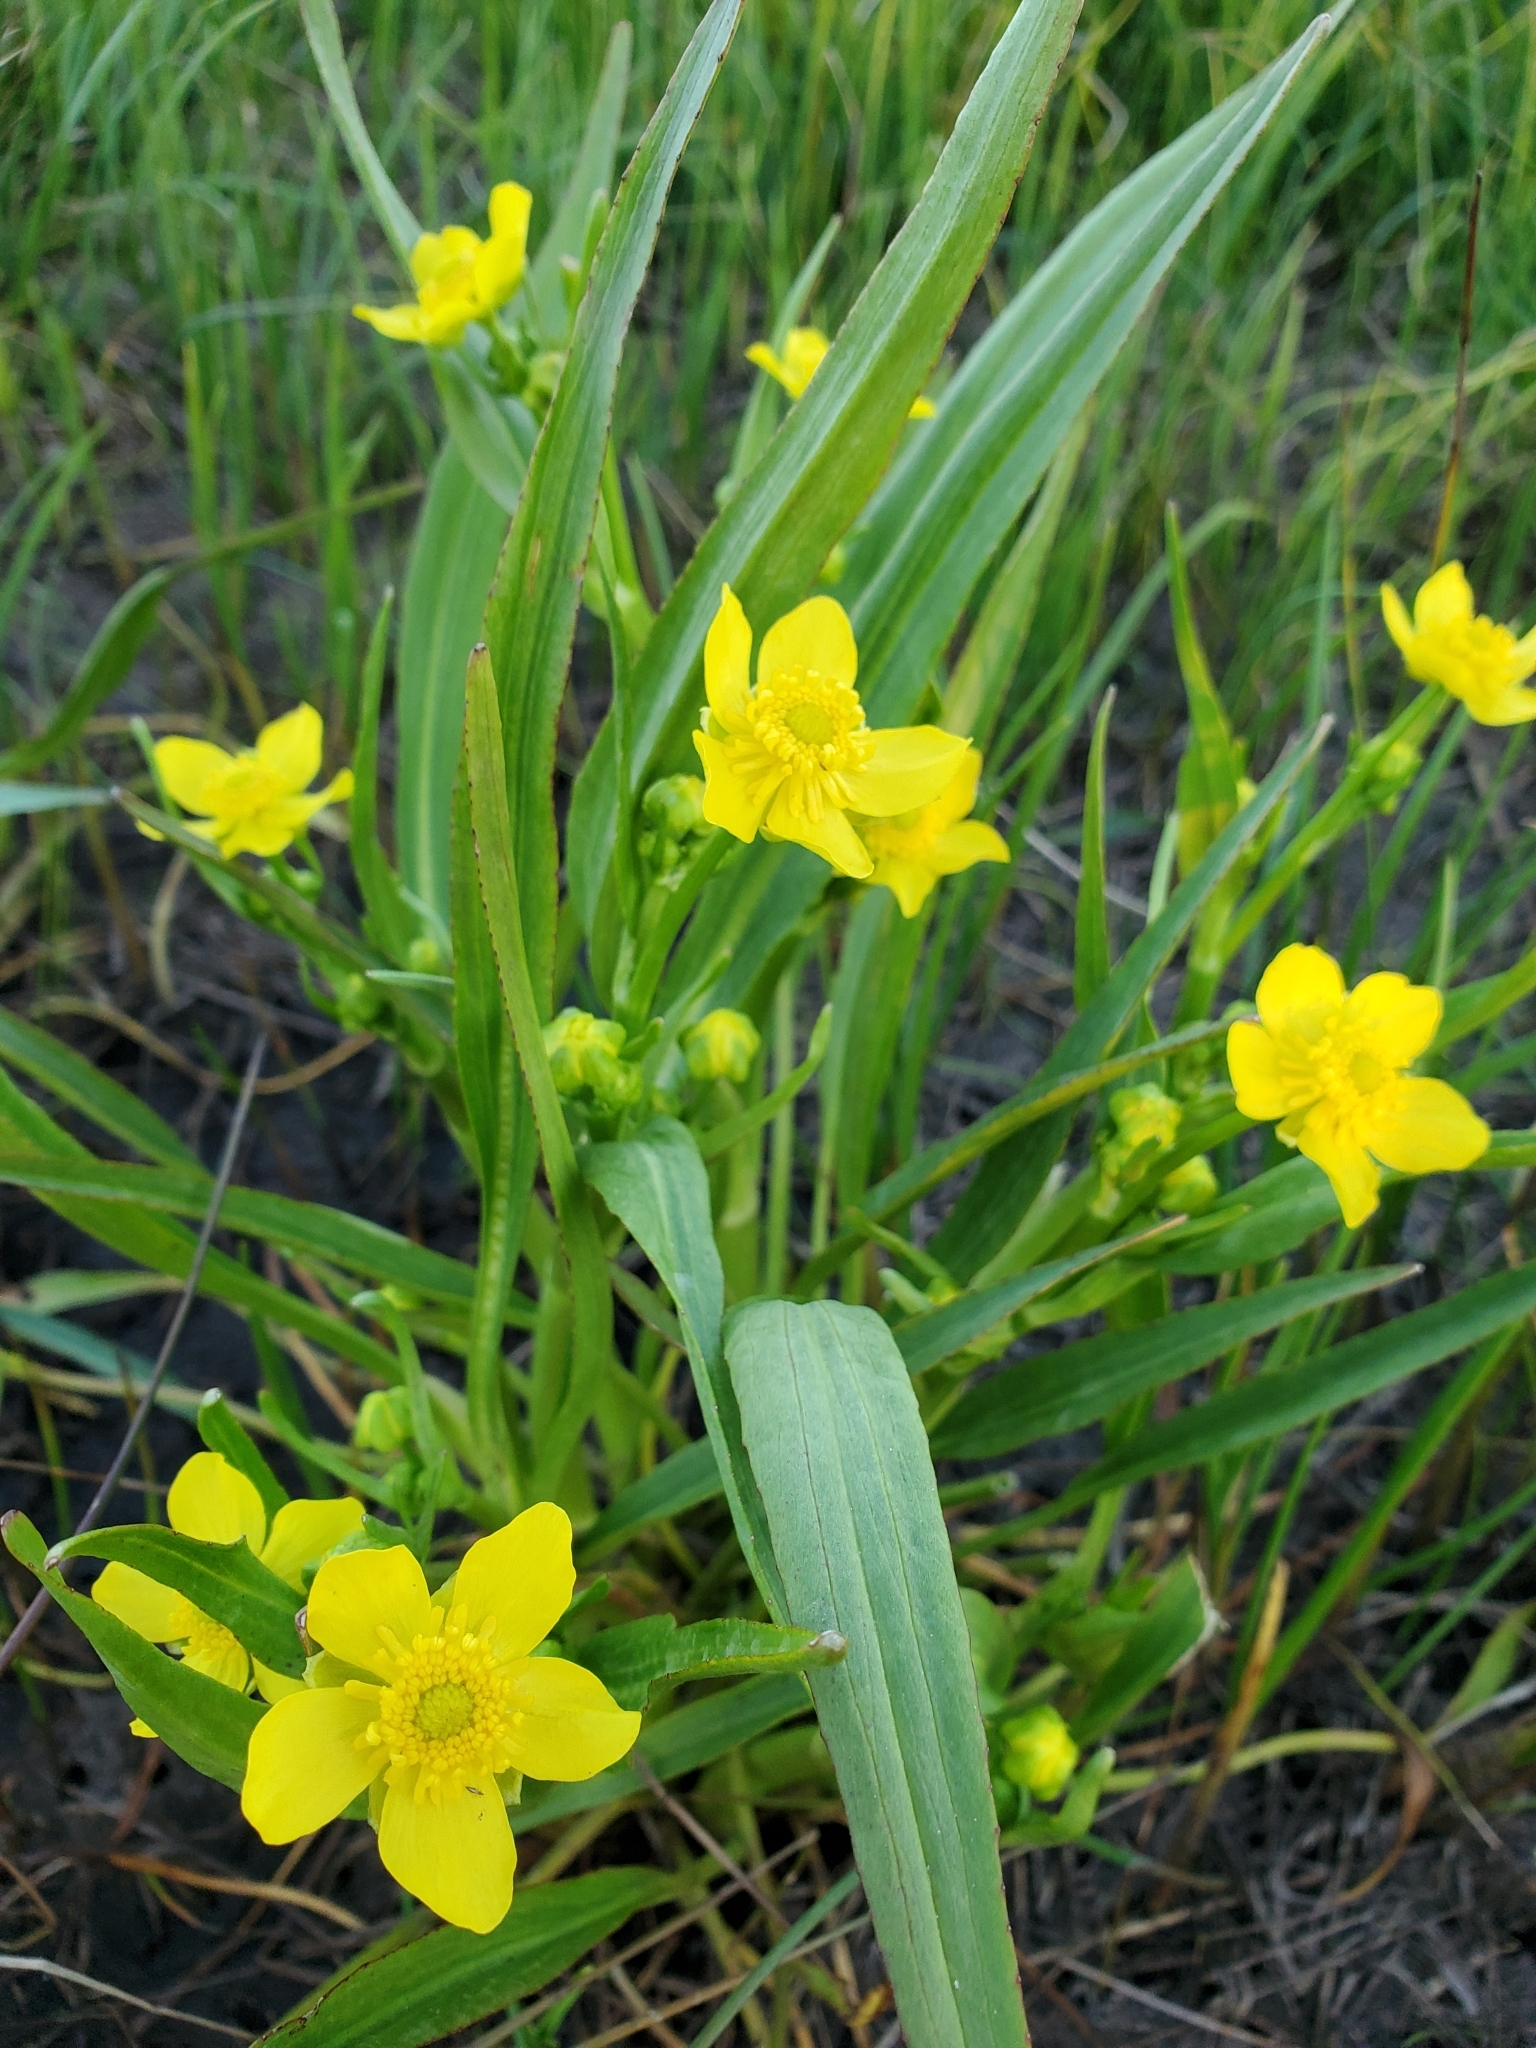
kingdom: Plantae
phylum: Tracheophyta
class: Magnoliopsida
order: Ranunculales
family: Ranunculaceae
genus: Ranunculus
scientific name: Ranunculus alismifolius
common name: Plantain-leaved buttercup
